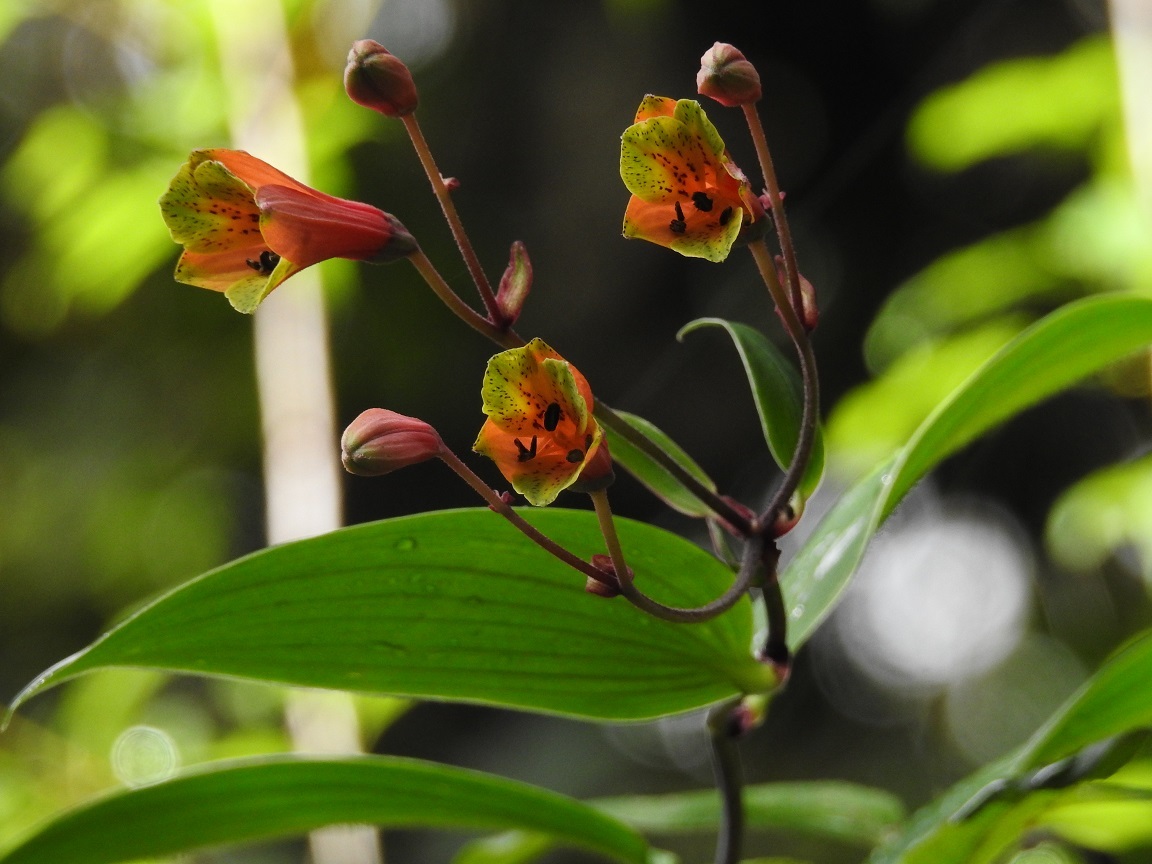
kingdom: Plantae
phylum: Tracheophyta
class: Liliopsida
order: Liliales
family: Alstroemeriaceae
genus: Bomarea
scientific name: Bomarea edulis
